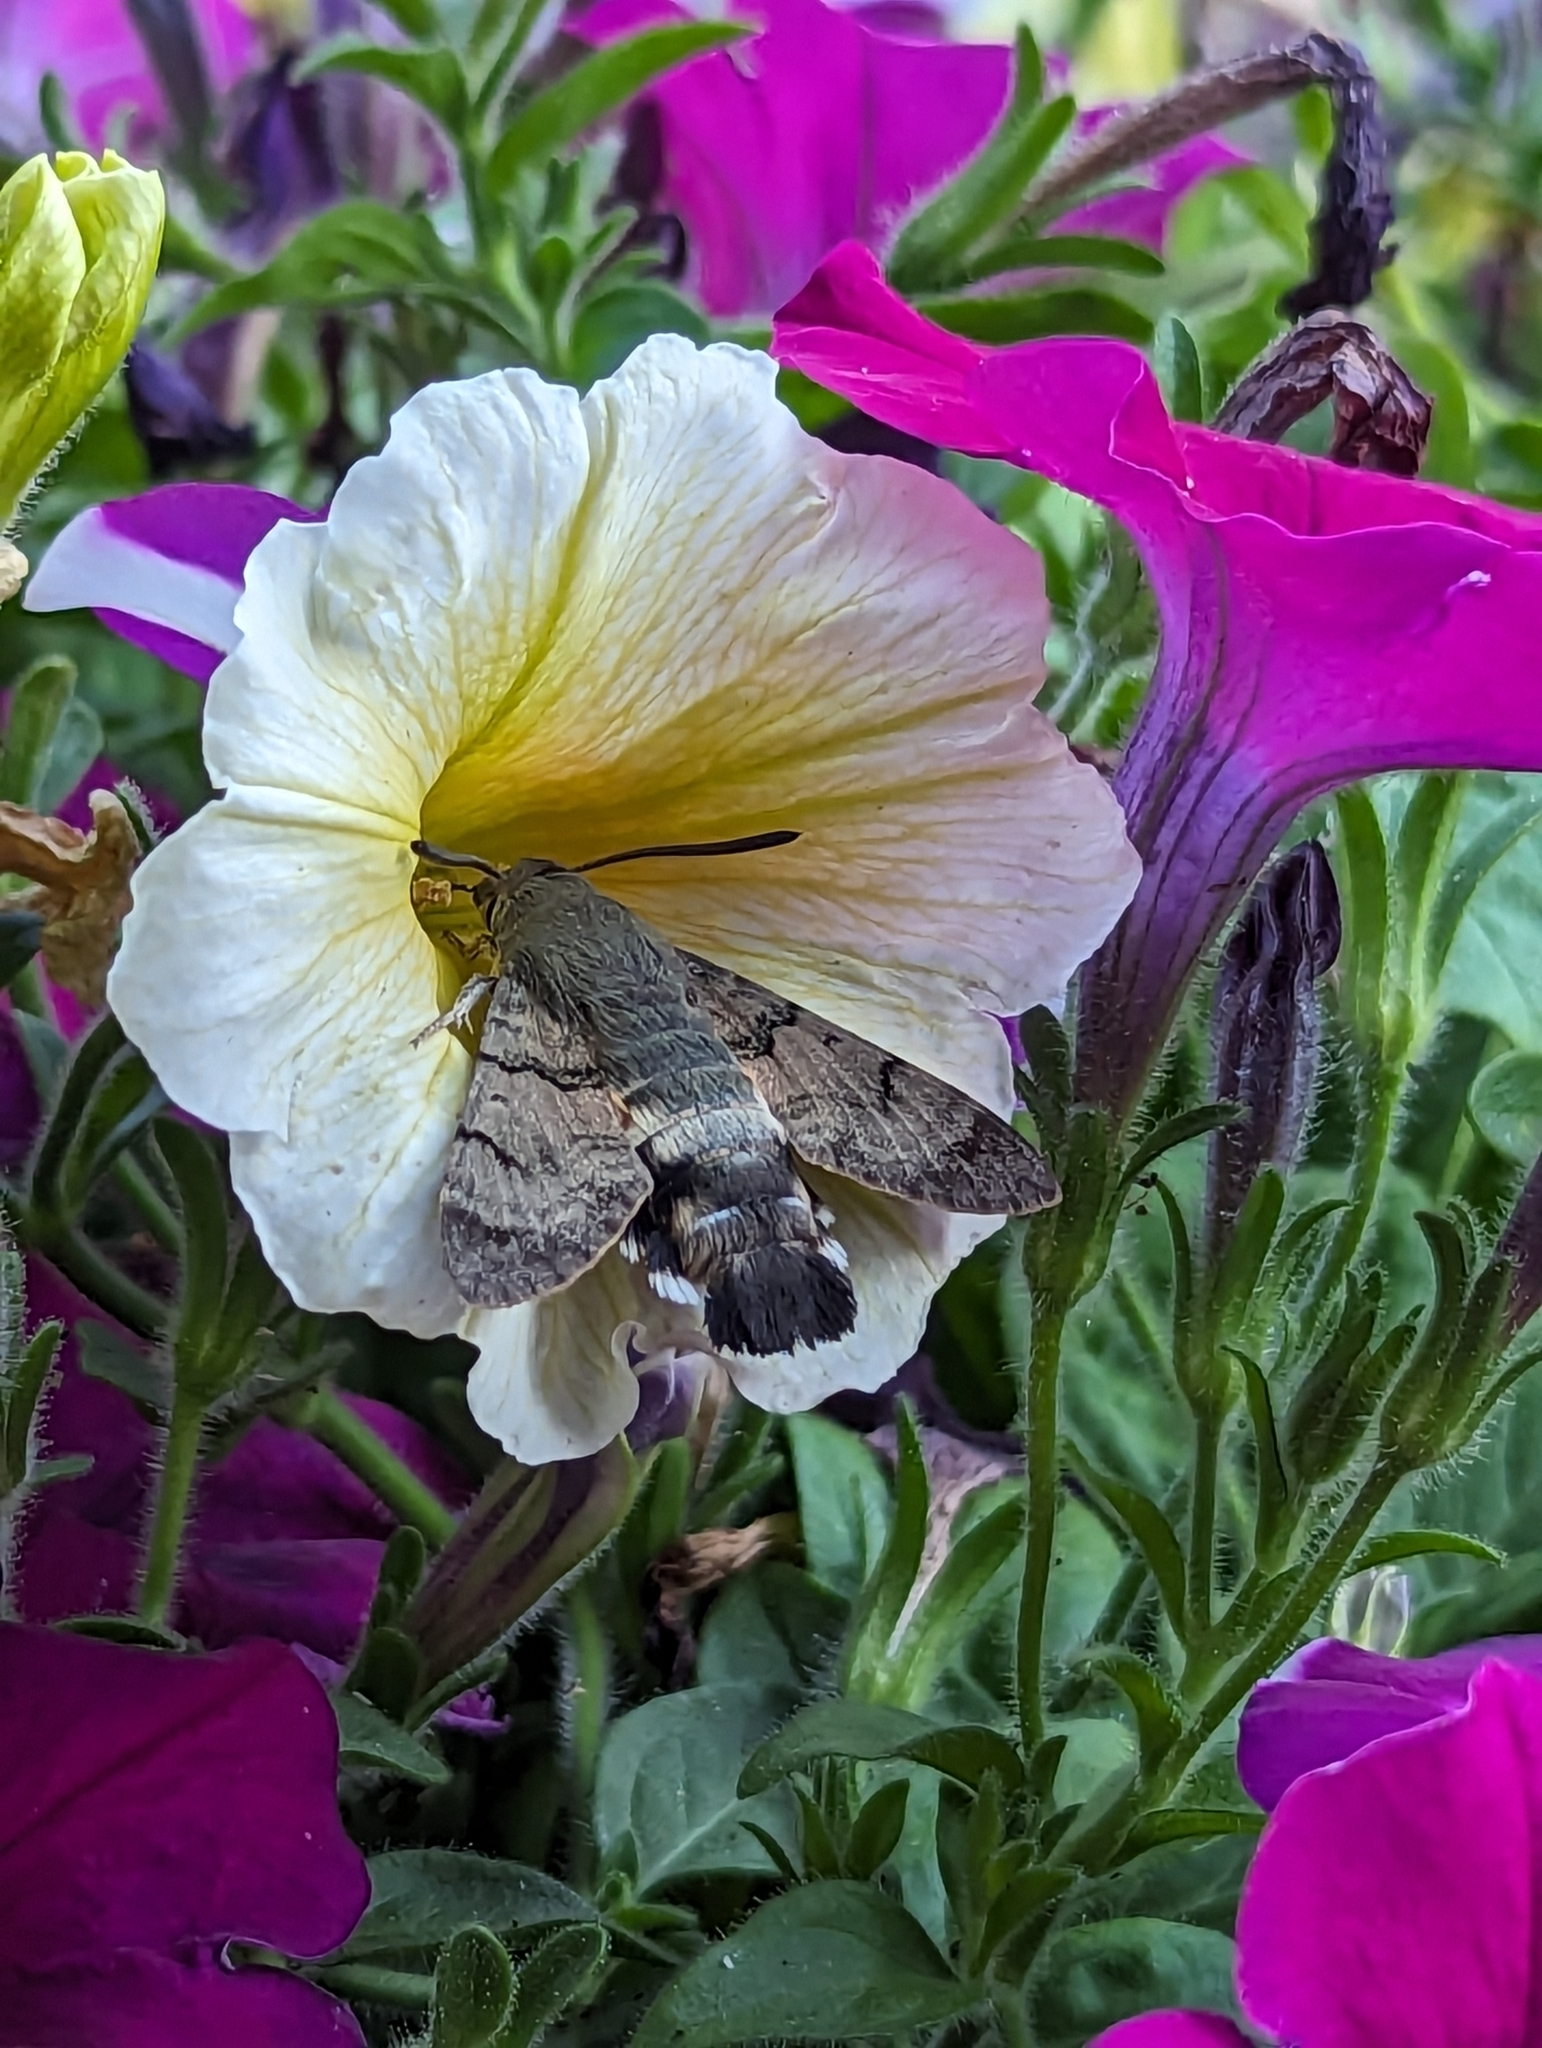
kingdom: Animalia
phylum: Arthropoda
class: Insecta
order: Lepidoptera
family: Sphingidae
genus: Macroglossum
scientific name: Macroglossum stellatarum
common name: Humming-bird hawk-moth
